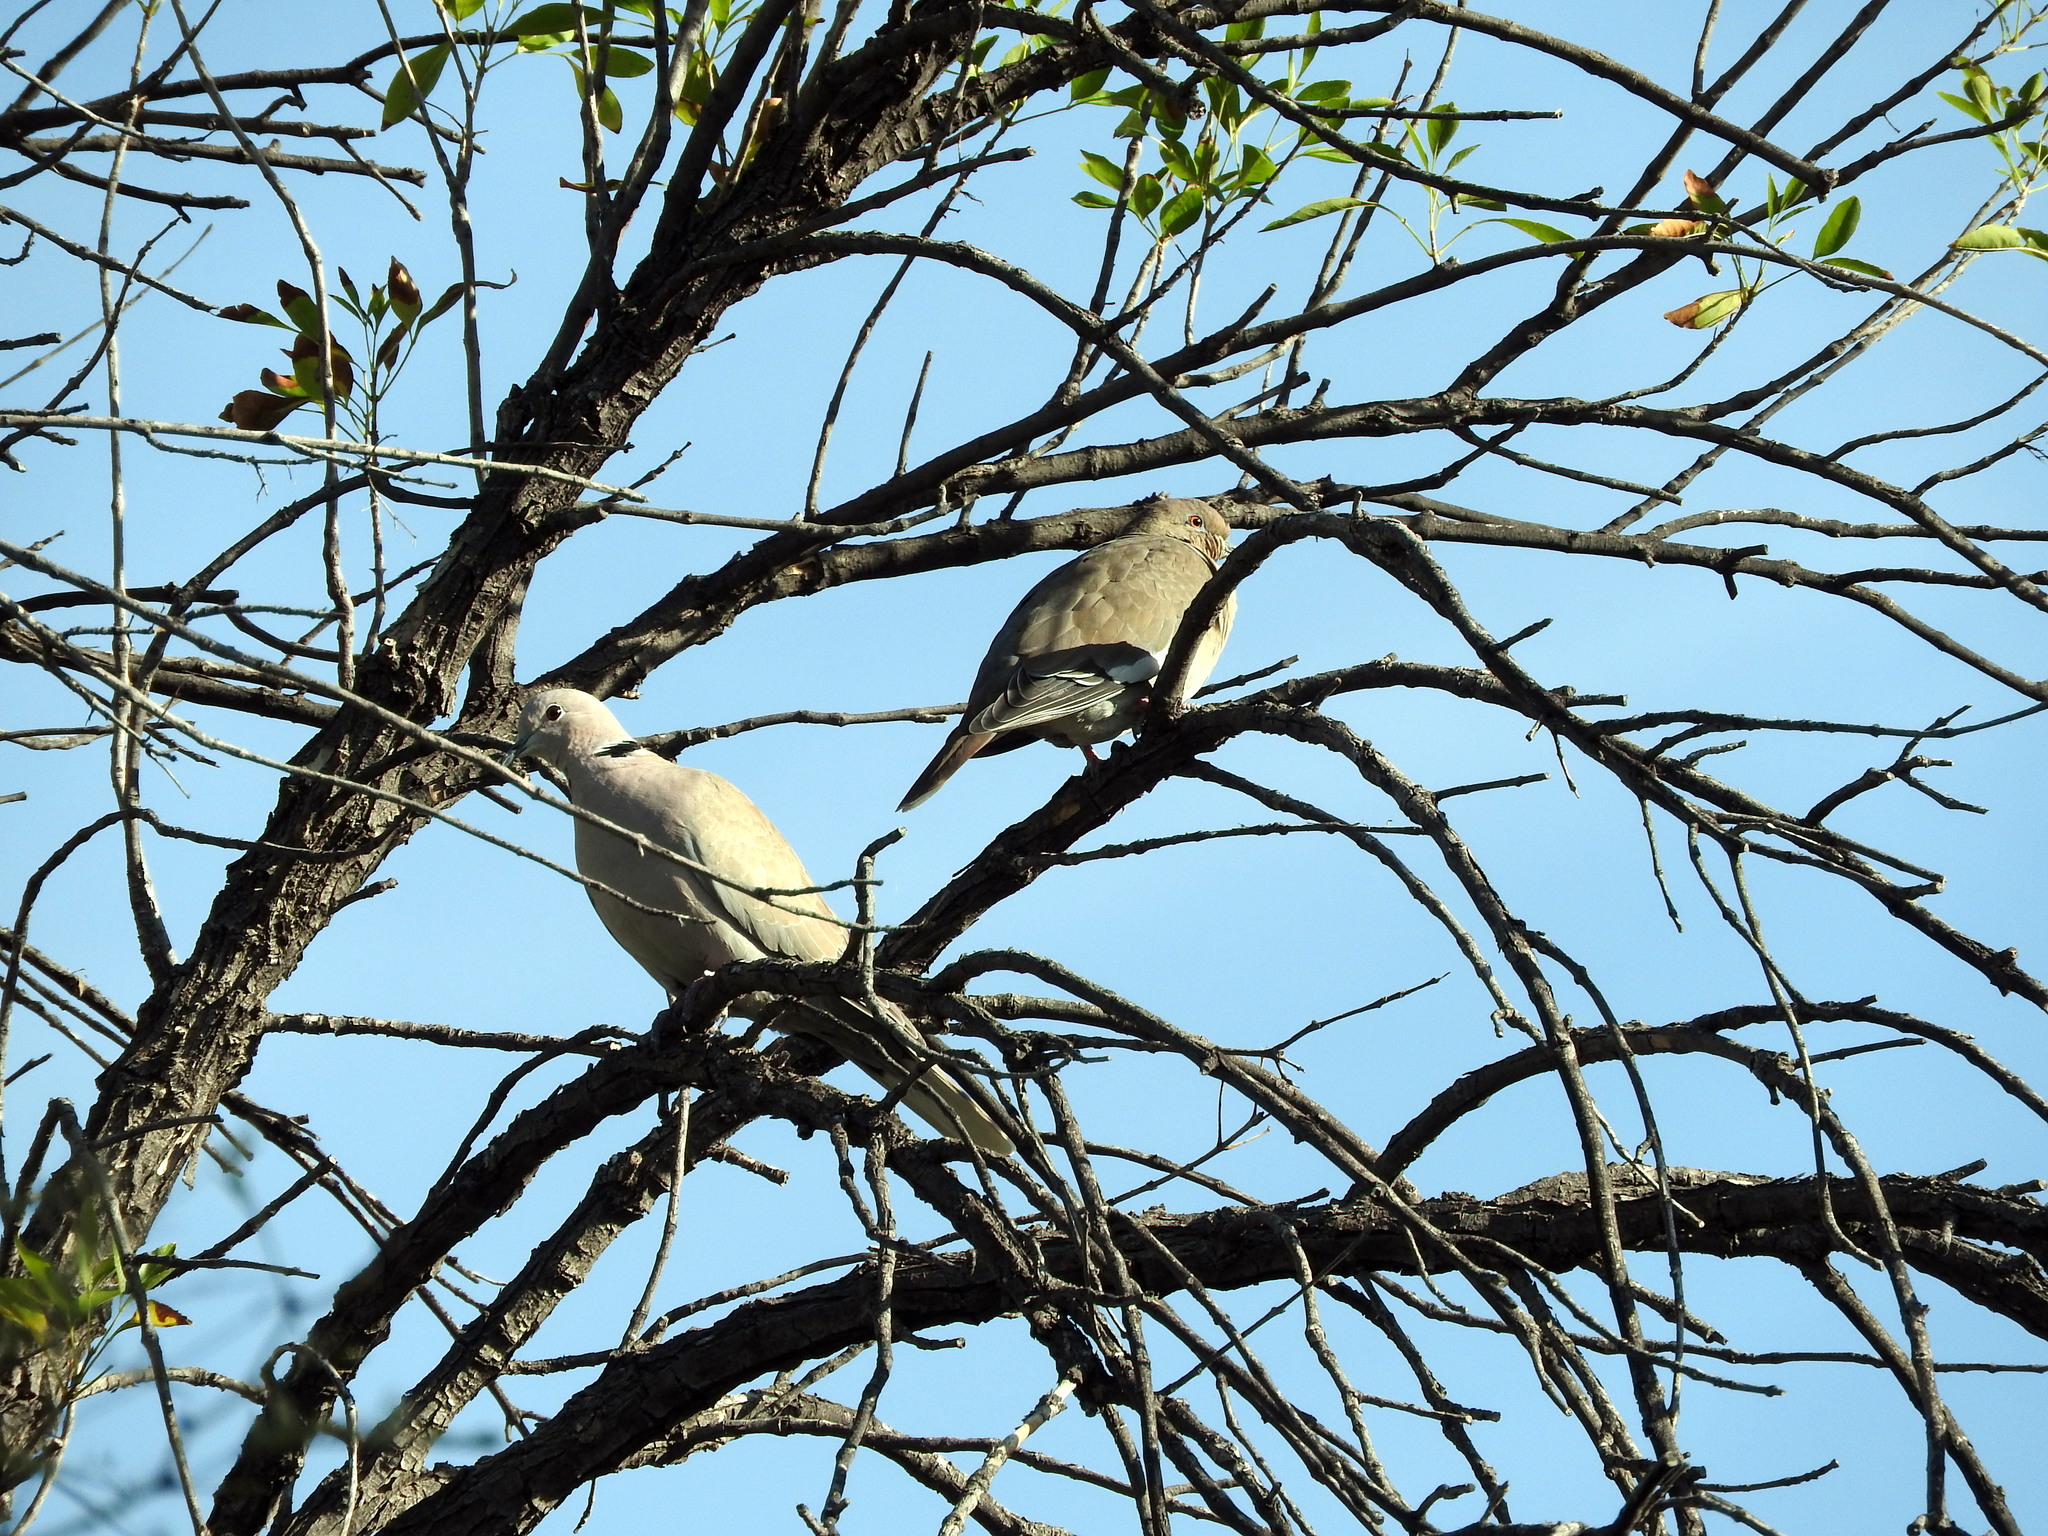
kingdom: Animalia
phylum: Chordata
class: Aves
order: Columbiformes
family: Columbidae
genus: Streptopelia
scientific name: Streptopelia decaocto
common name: Eurasian collared dove
